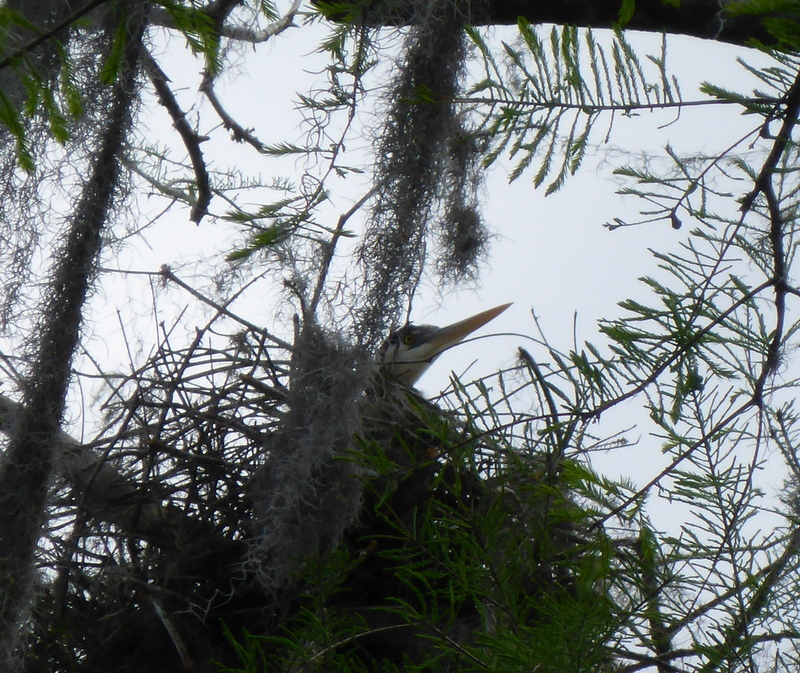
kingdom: Animalia
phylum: Chordata
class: Aves
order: Pelecaniformes
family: Ardeidae
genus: Ardea
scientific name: Ardea herodias
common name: Great blue heron
